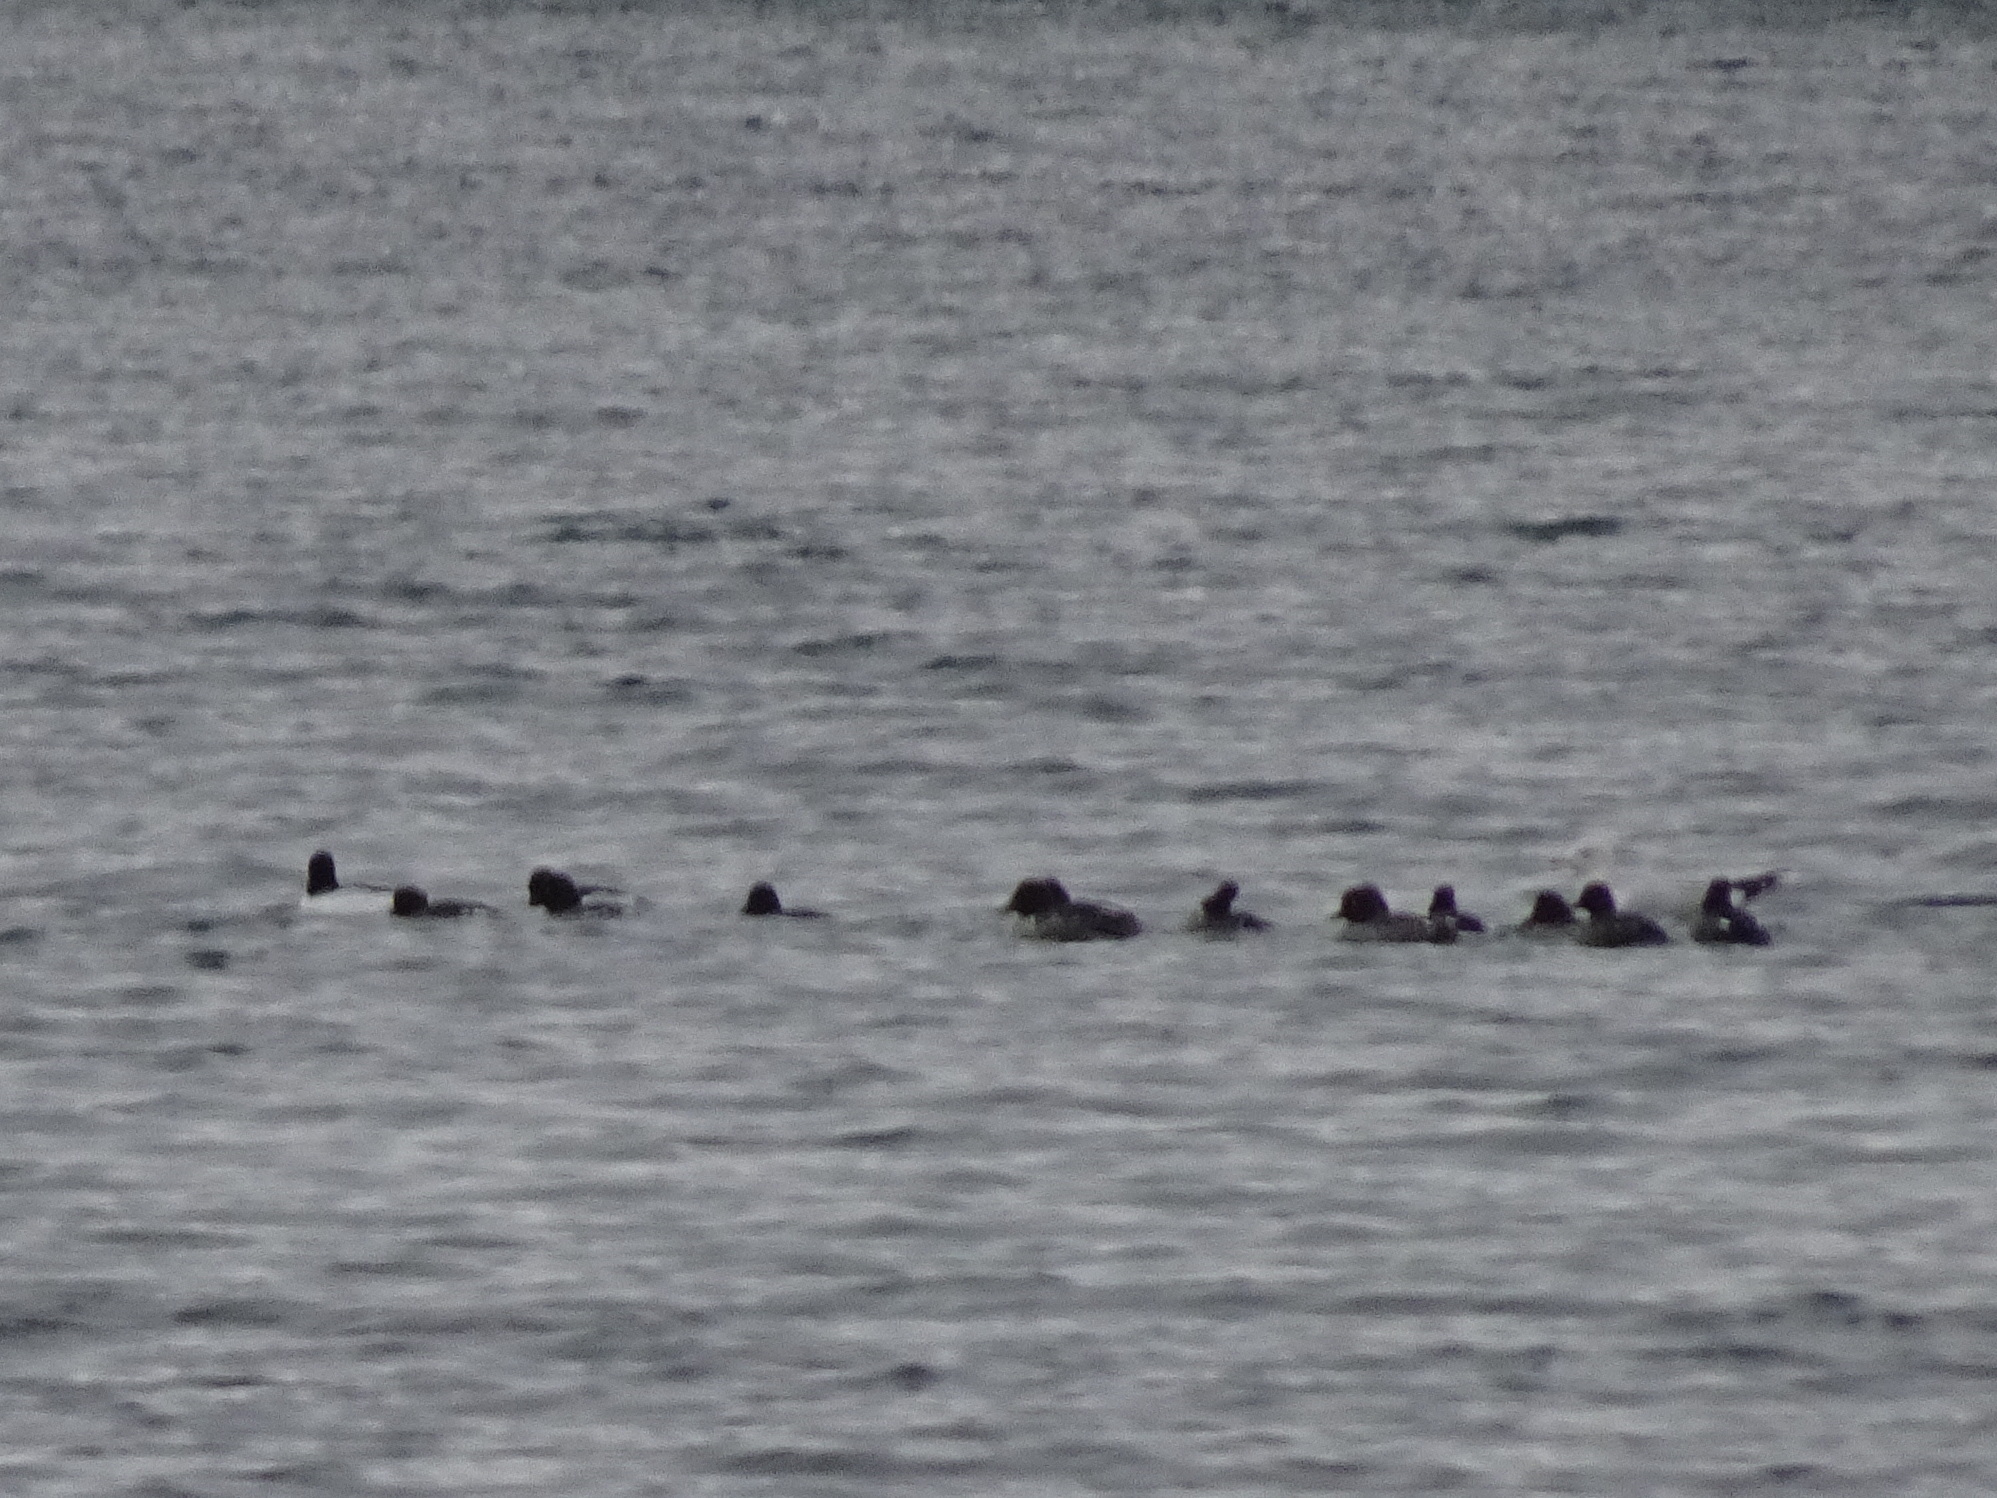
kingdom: Animalia
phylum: Chordata
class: Aves
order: Anseriformes
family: Anatidae
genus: Bucephala
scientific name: Bucephala clangula
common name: Common goldeneye
